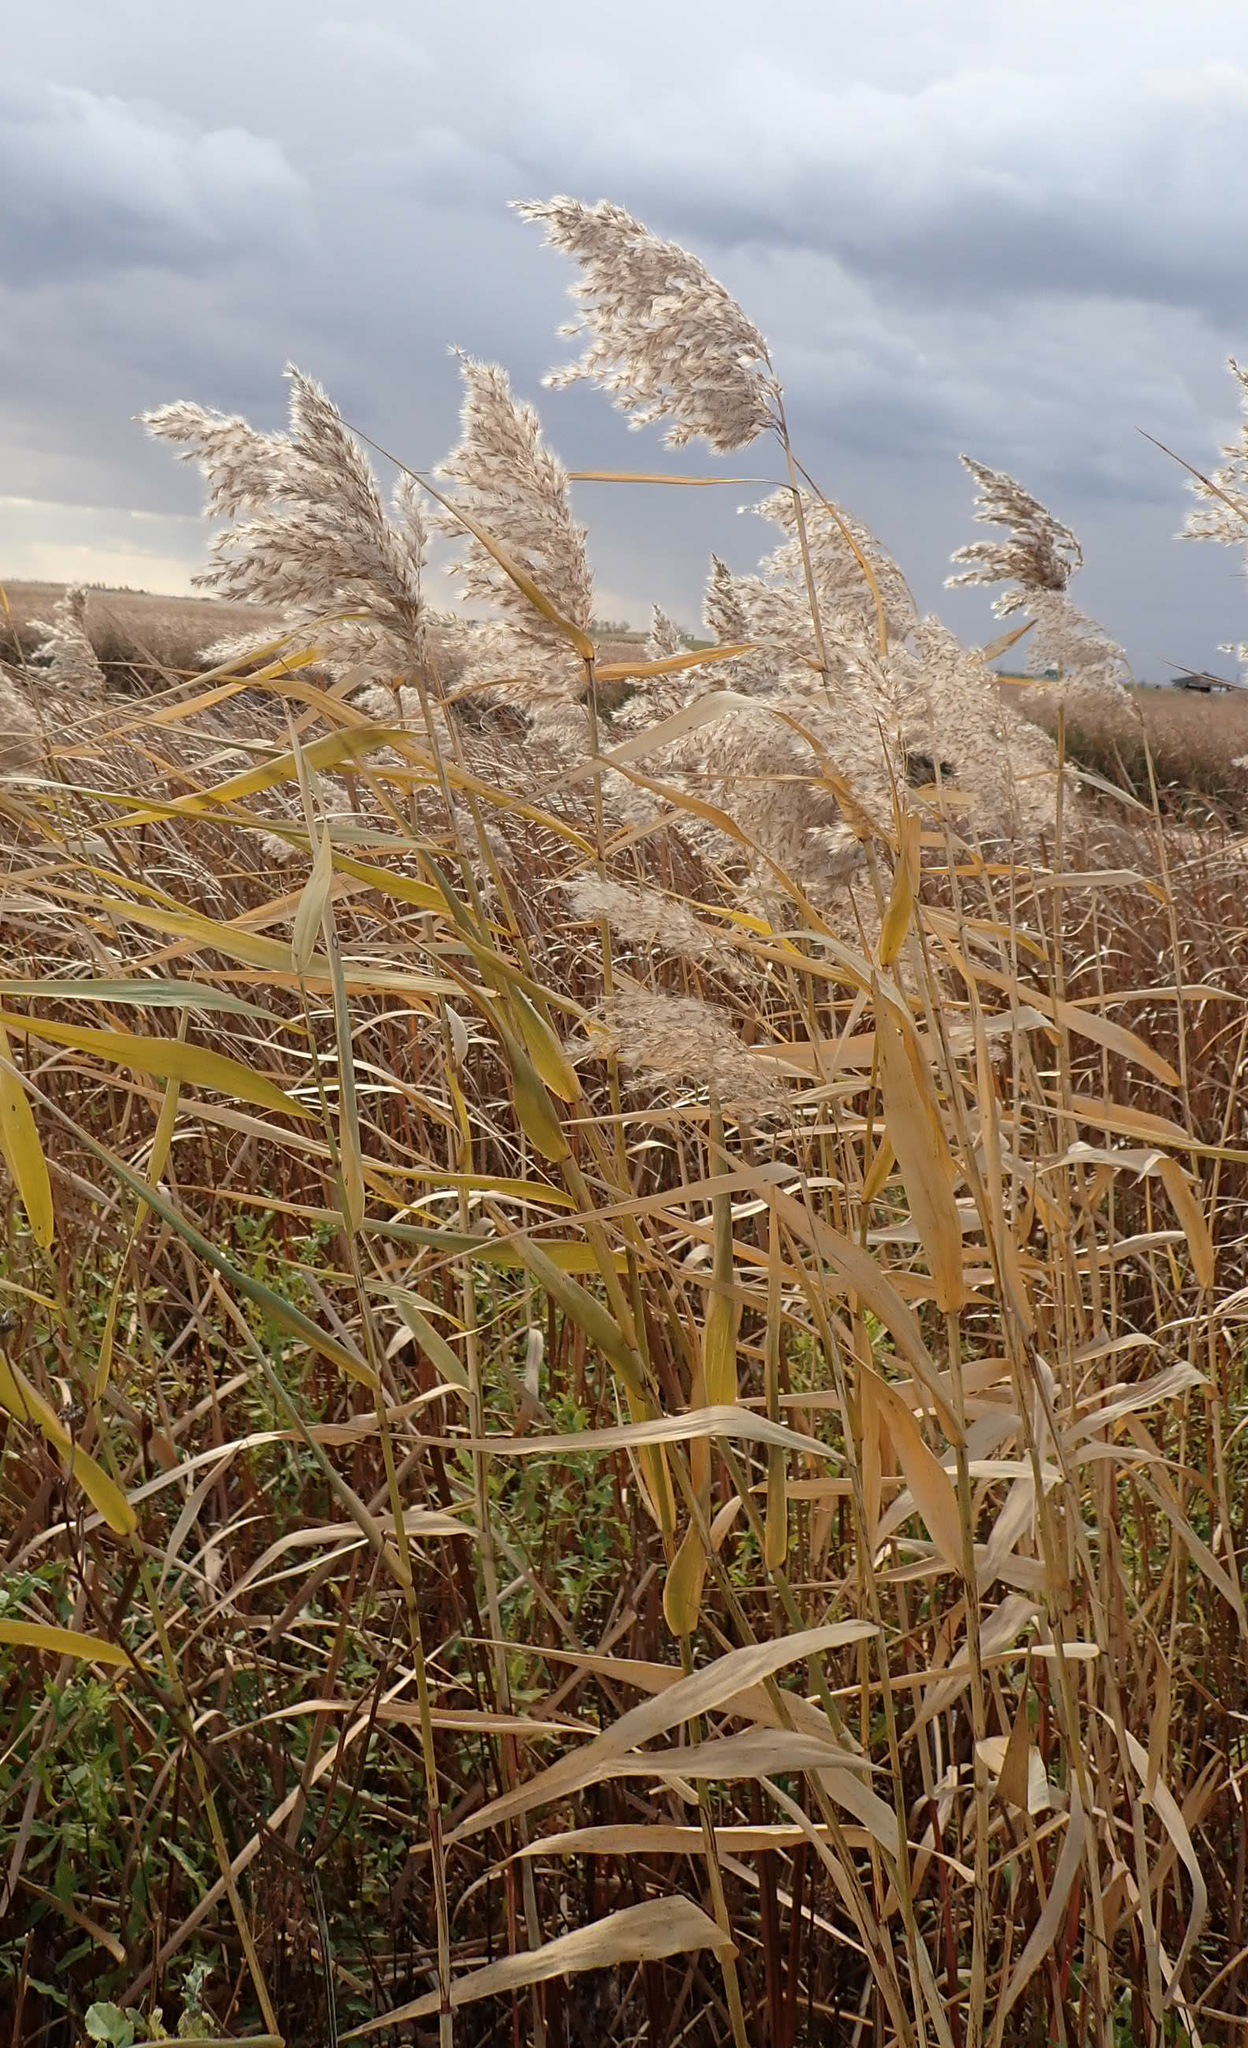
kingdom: Plantae
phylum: Tracheophyta
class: Liliopsida
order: Poales
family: Poaceae
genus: Phragmites
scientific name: Phragmites australis
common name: Common reed
